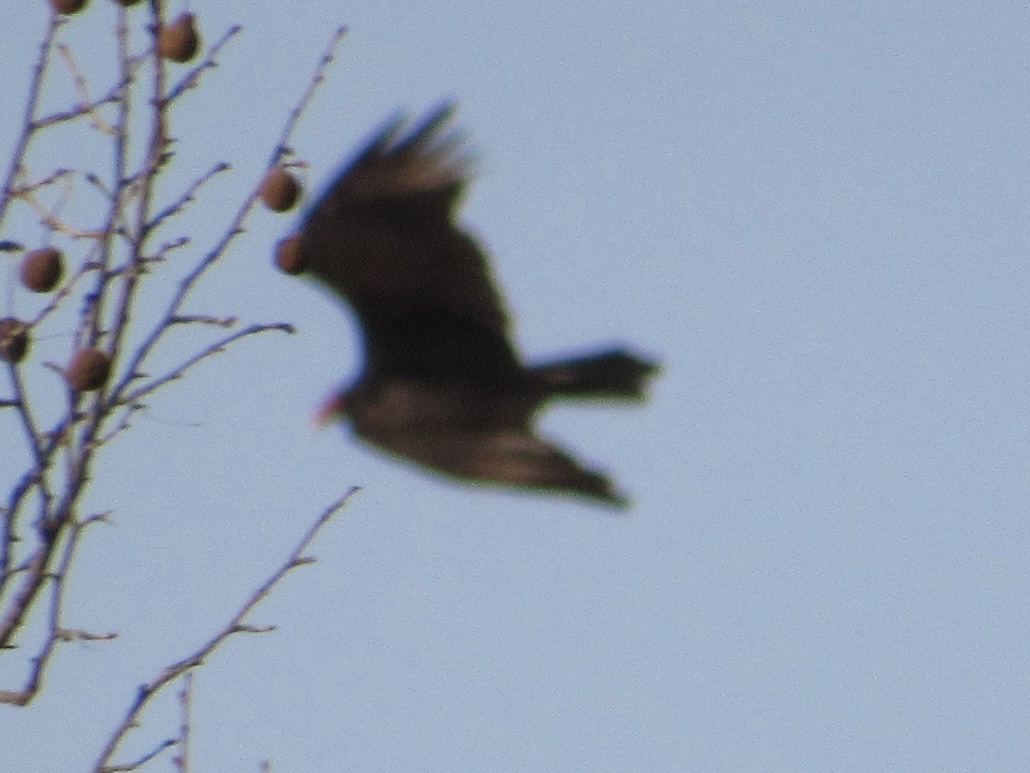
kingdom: Animalia
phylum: Chordata
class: Aves
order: Accipitriformes
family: Cathartidae
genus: Cathartes
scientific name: Cathartes aura
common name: Turkey vulture
